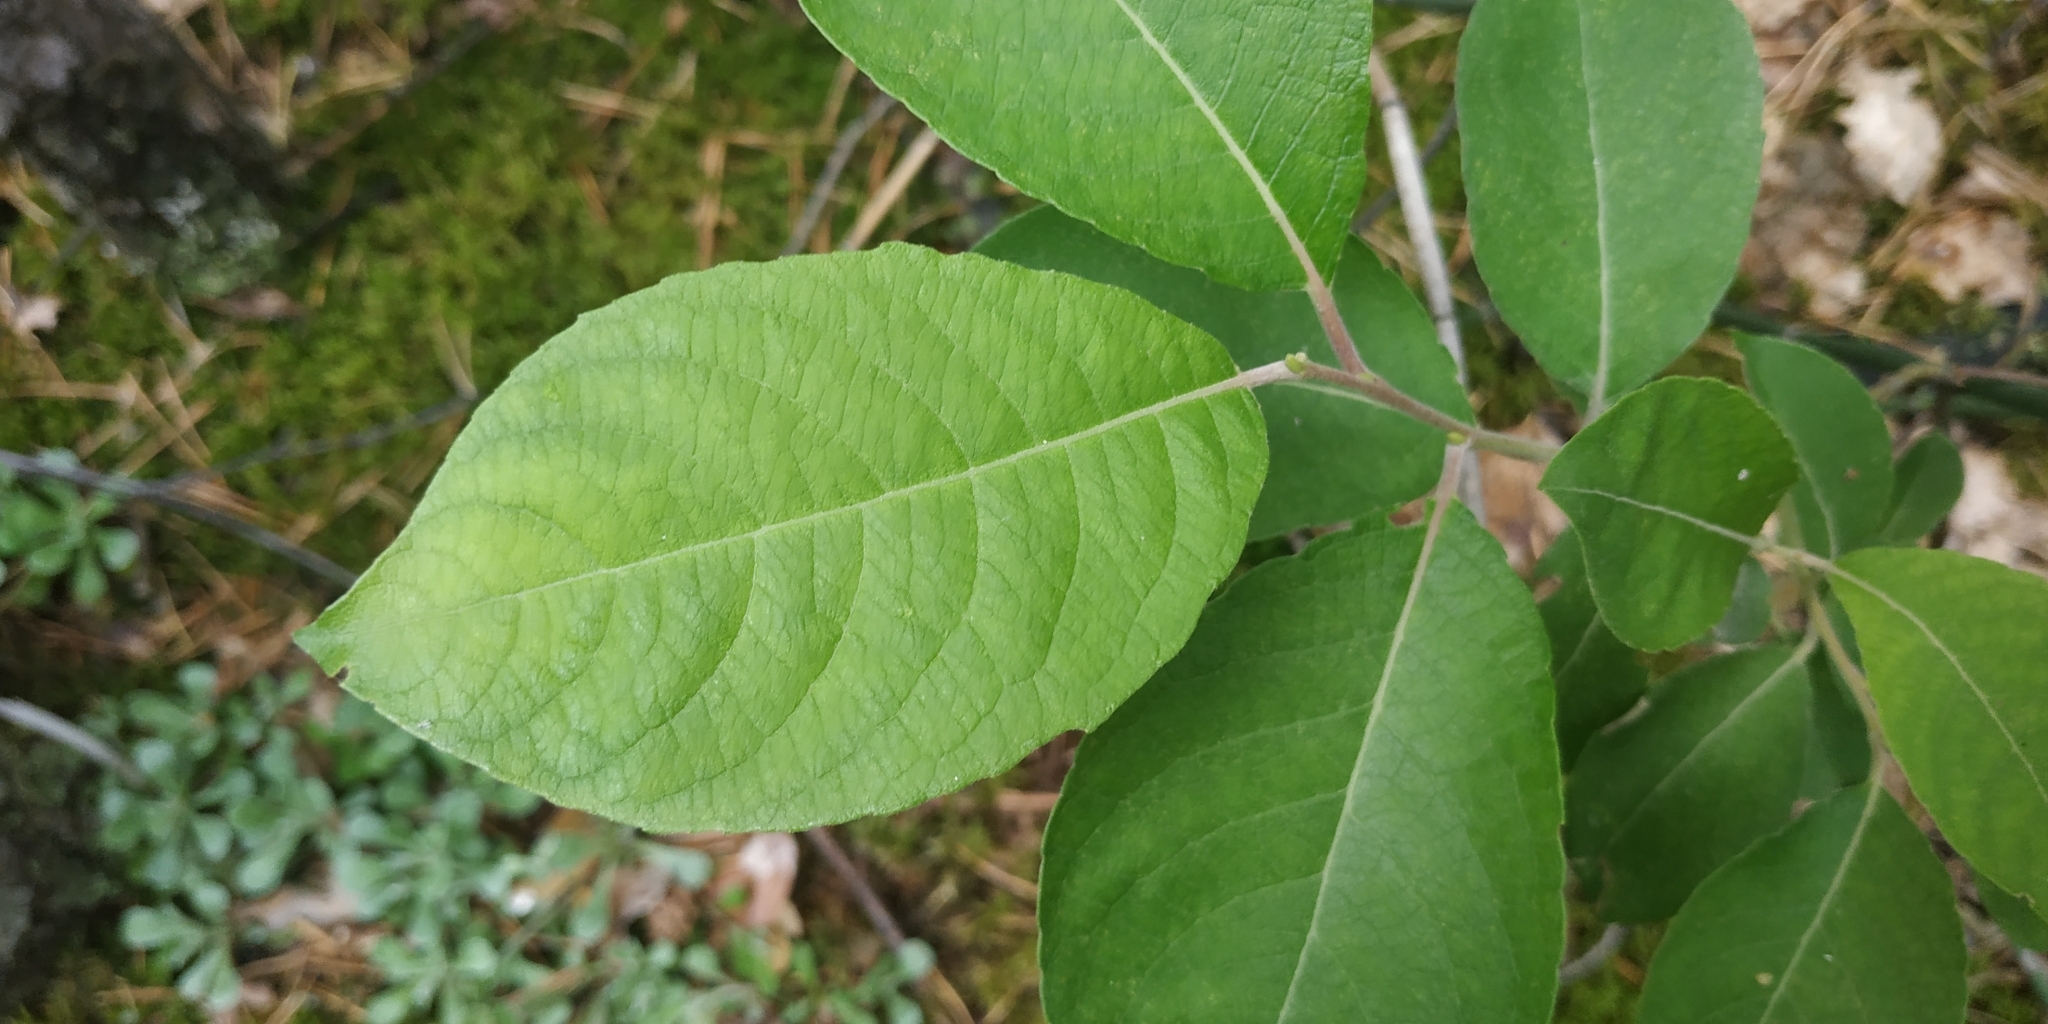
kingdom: Plantae
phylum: Tracheophyta
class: Magnoliopsida
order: Malpighiales
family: Salicaceae
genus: Salix
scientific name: Salix caprea
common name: Goat willow
